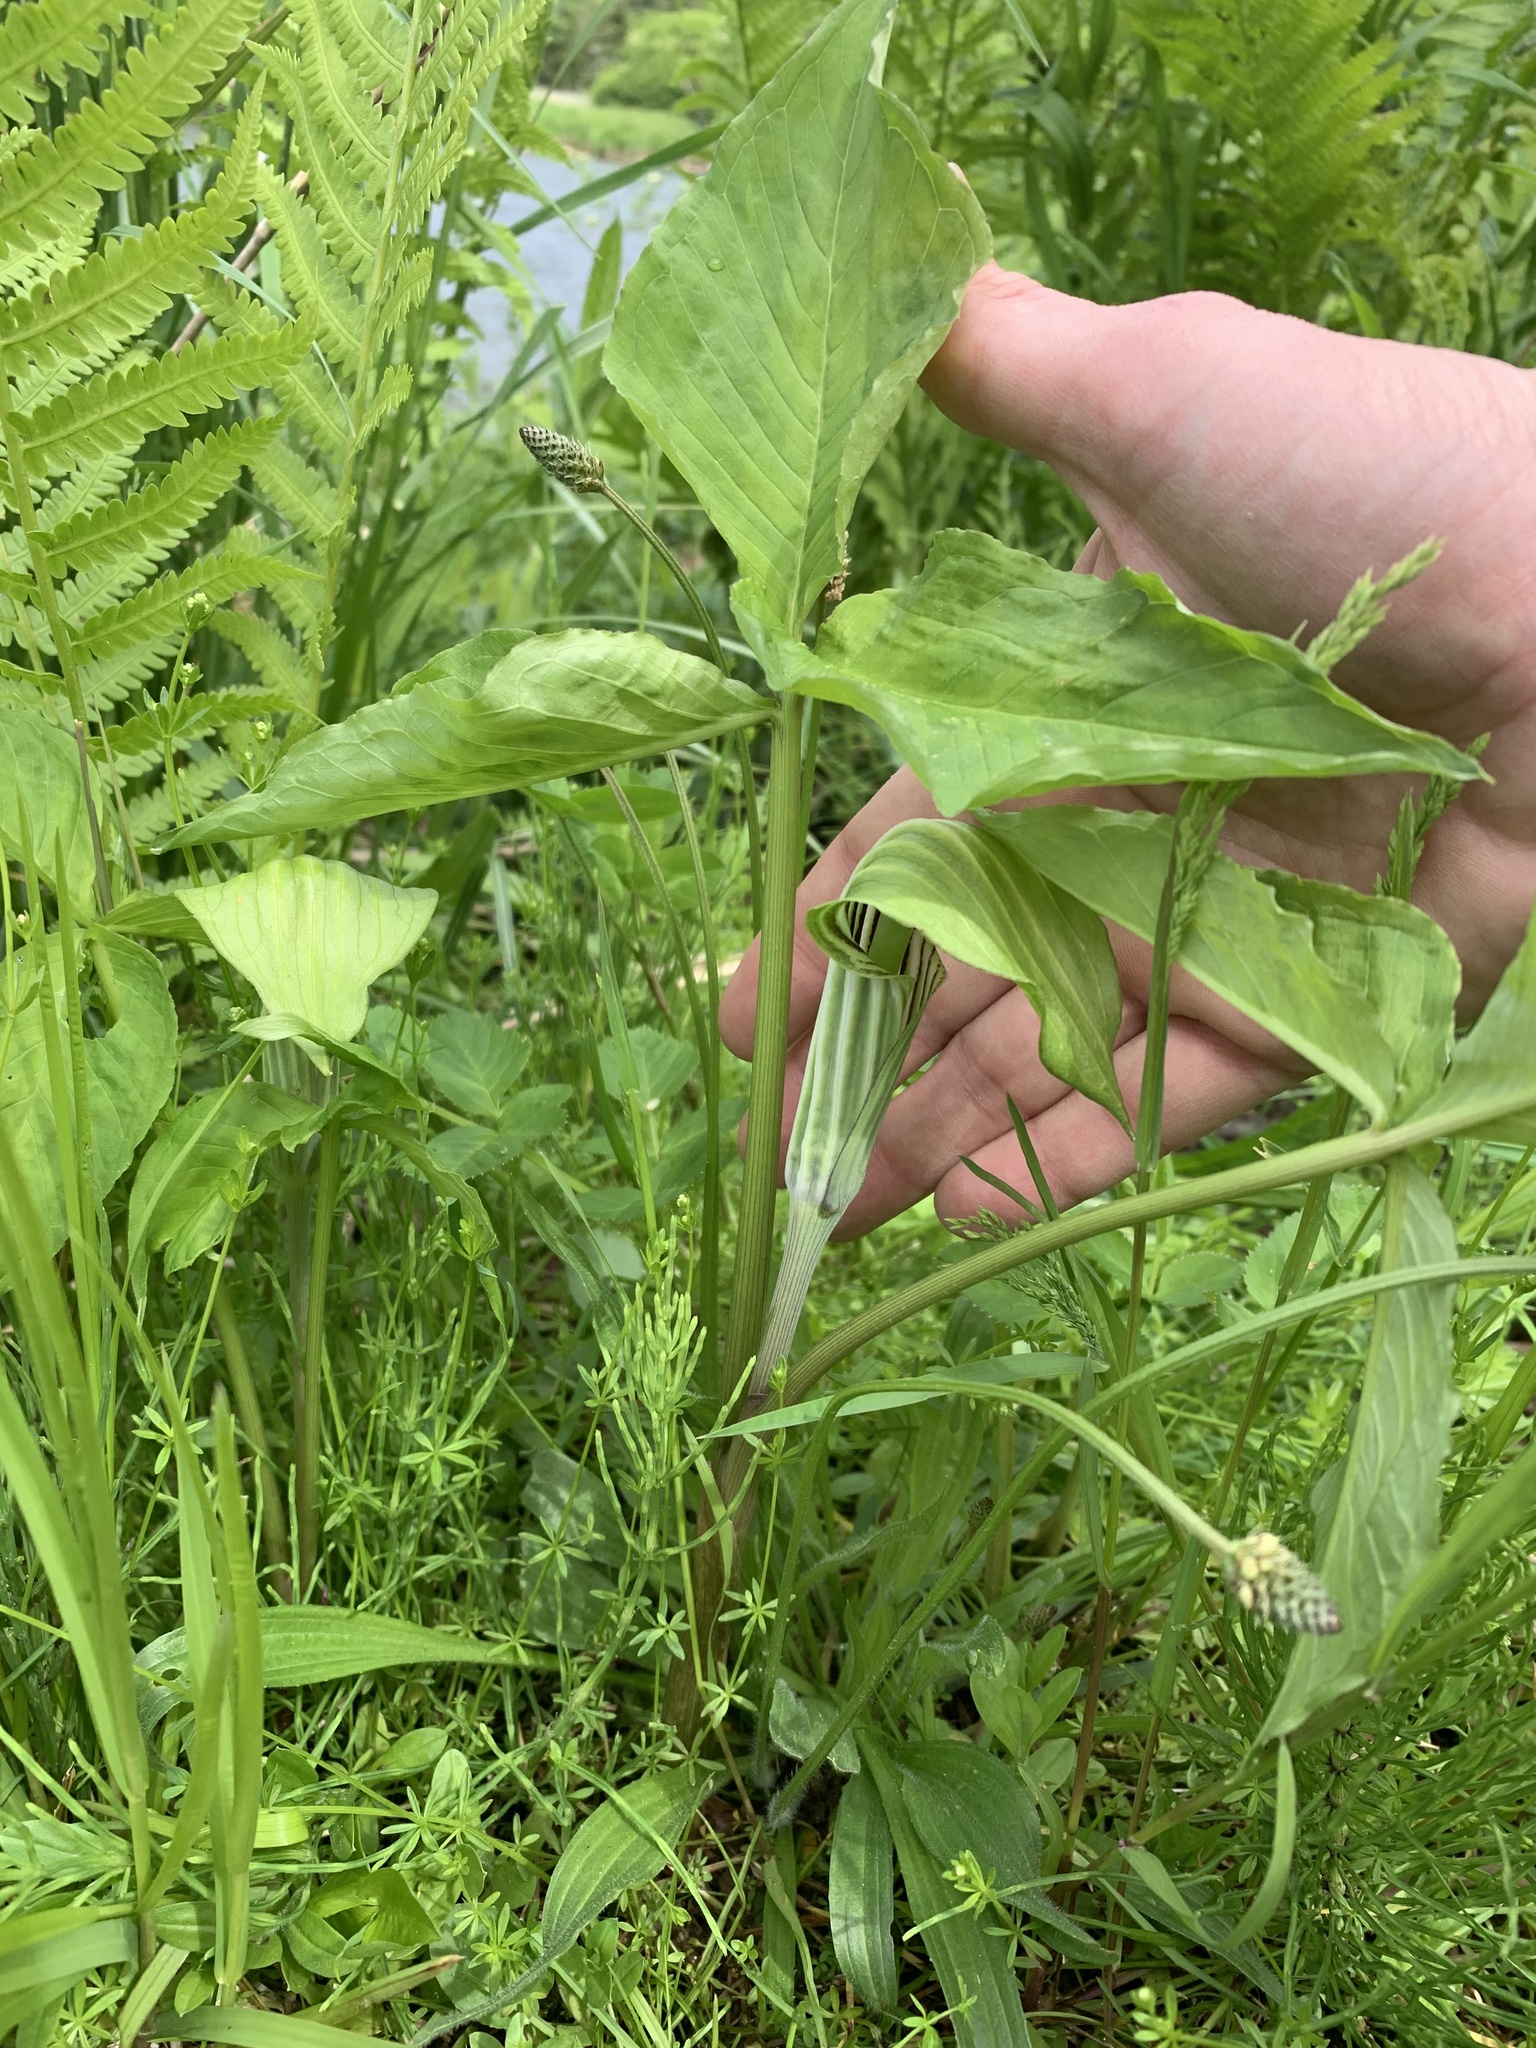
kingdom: Plantae
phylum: Tracheophyta
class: Liliopsida
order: Alismatales
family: Araceae
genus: Arisaema
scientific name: Arisaema stewardsonii
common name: Swamp jack-in-the-pulpit
